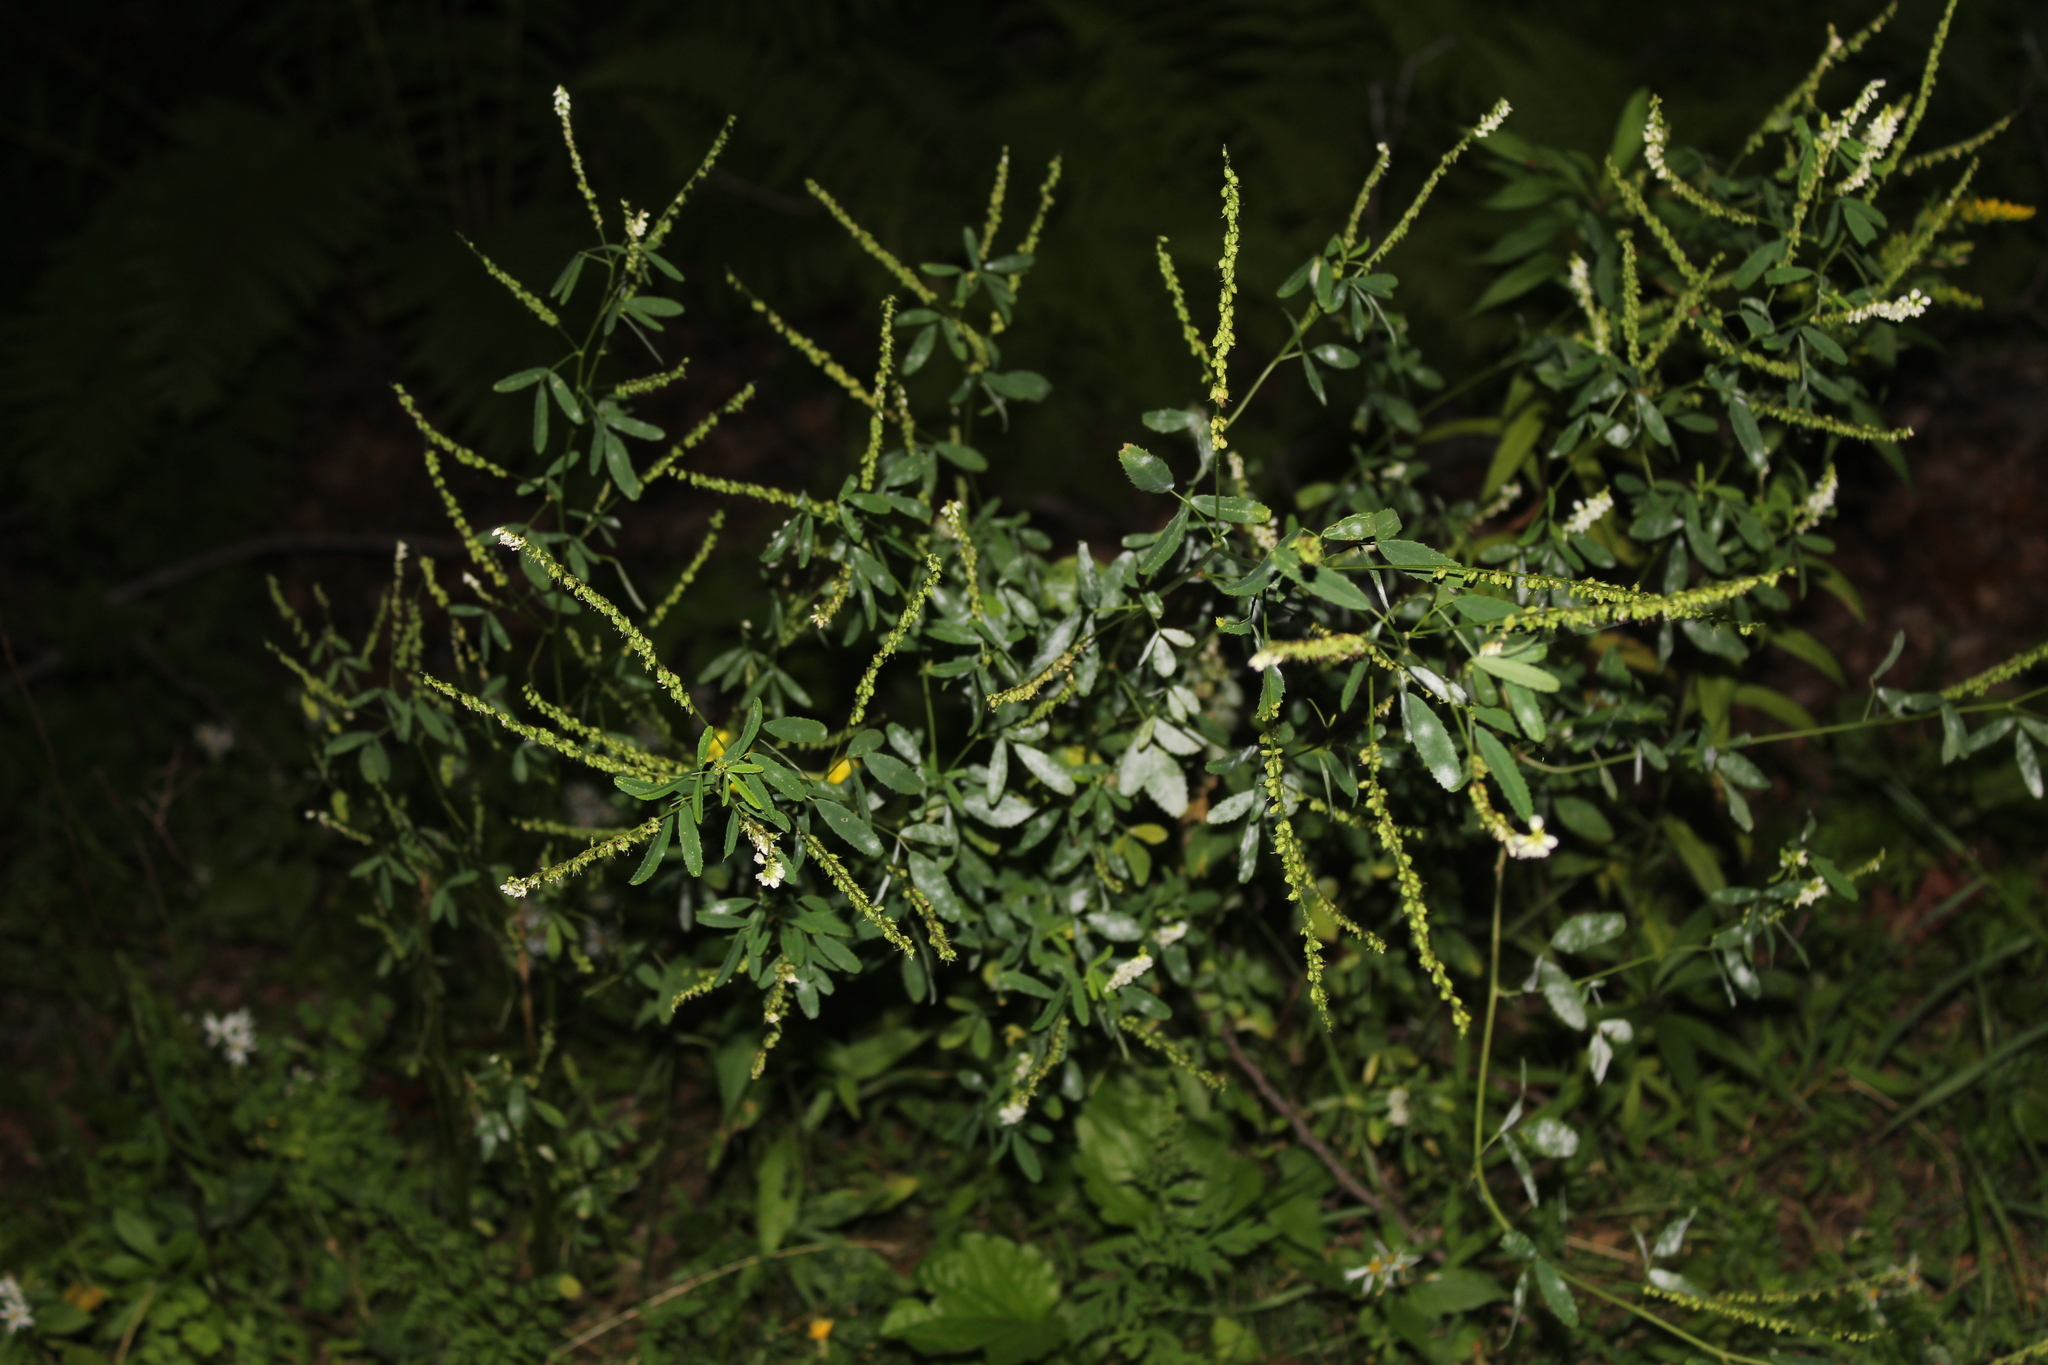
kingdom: Plantae
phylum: Tracheophyta
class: Magnoliopsida
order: Fabales
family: Fabaceae
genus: Melilotus
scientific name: Melilotus albus
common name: White melilot
